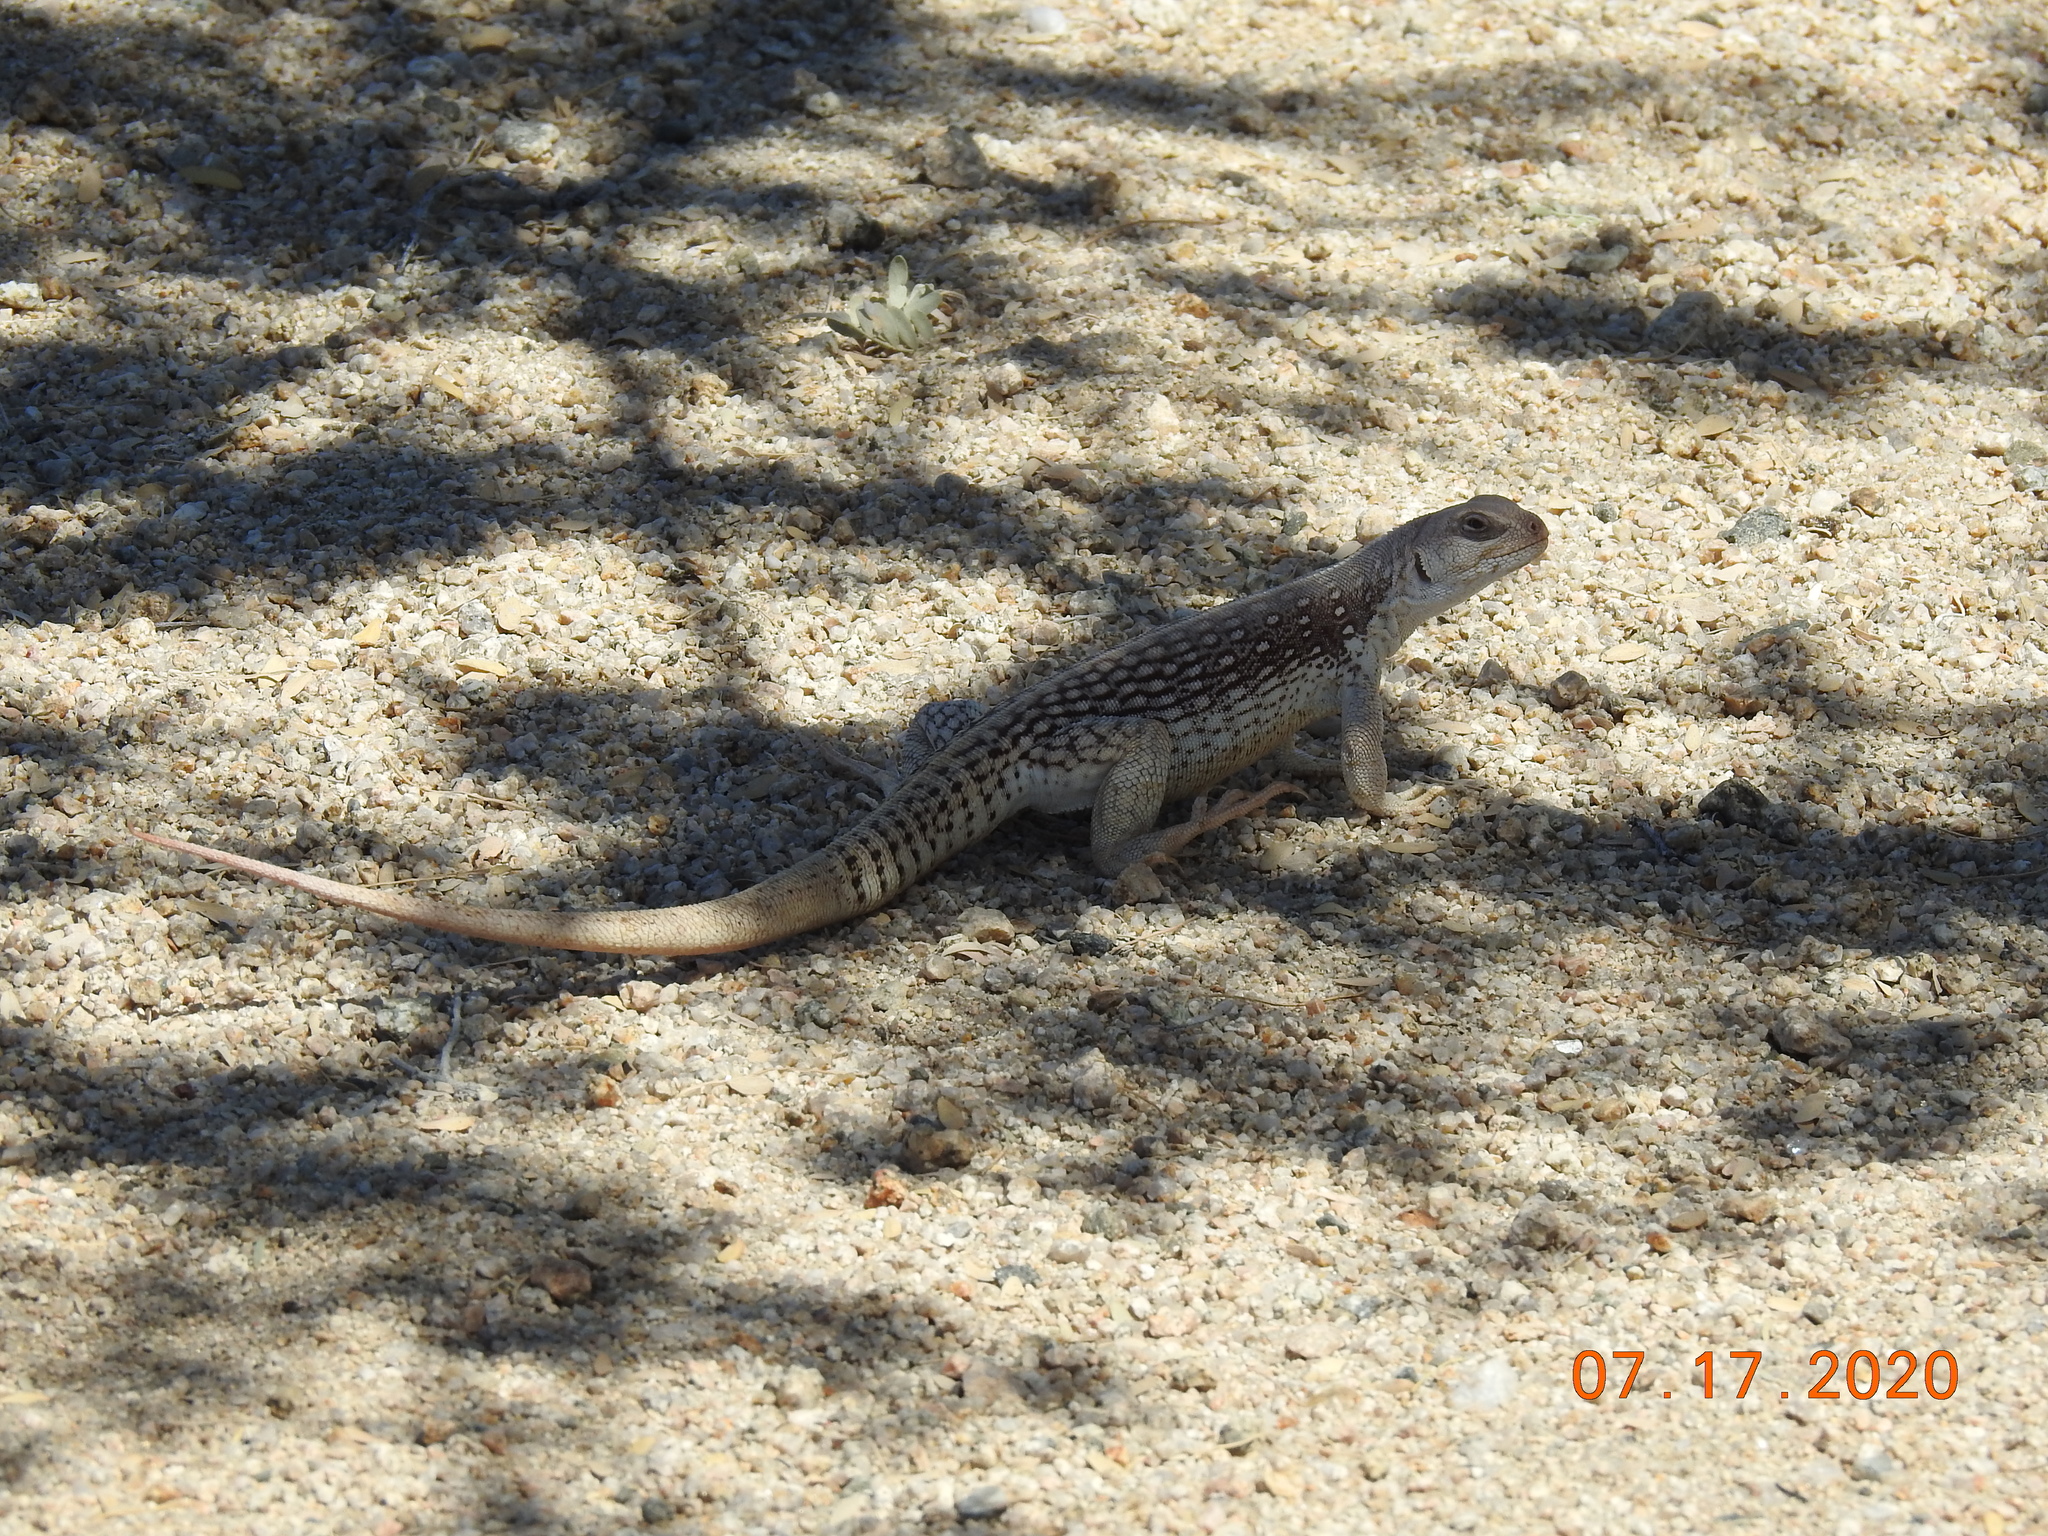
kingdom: Animalia
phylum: Chordata
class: Squamata
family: Iguanidae
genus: Dipsosaurus
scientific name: Dipsosaurus dorsalis
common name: Desert iguana
